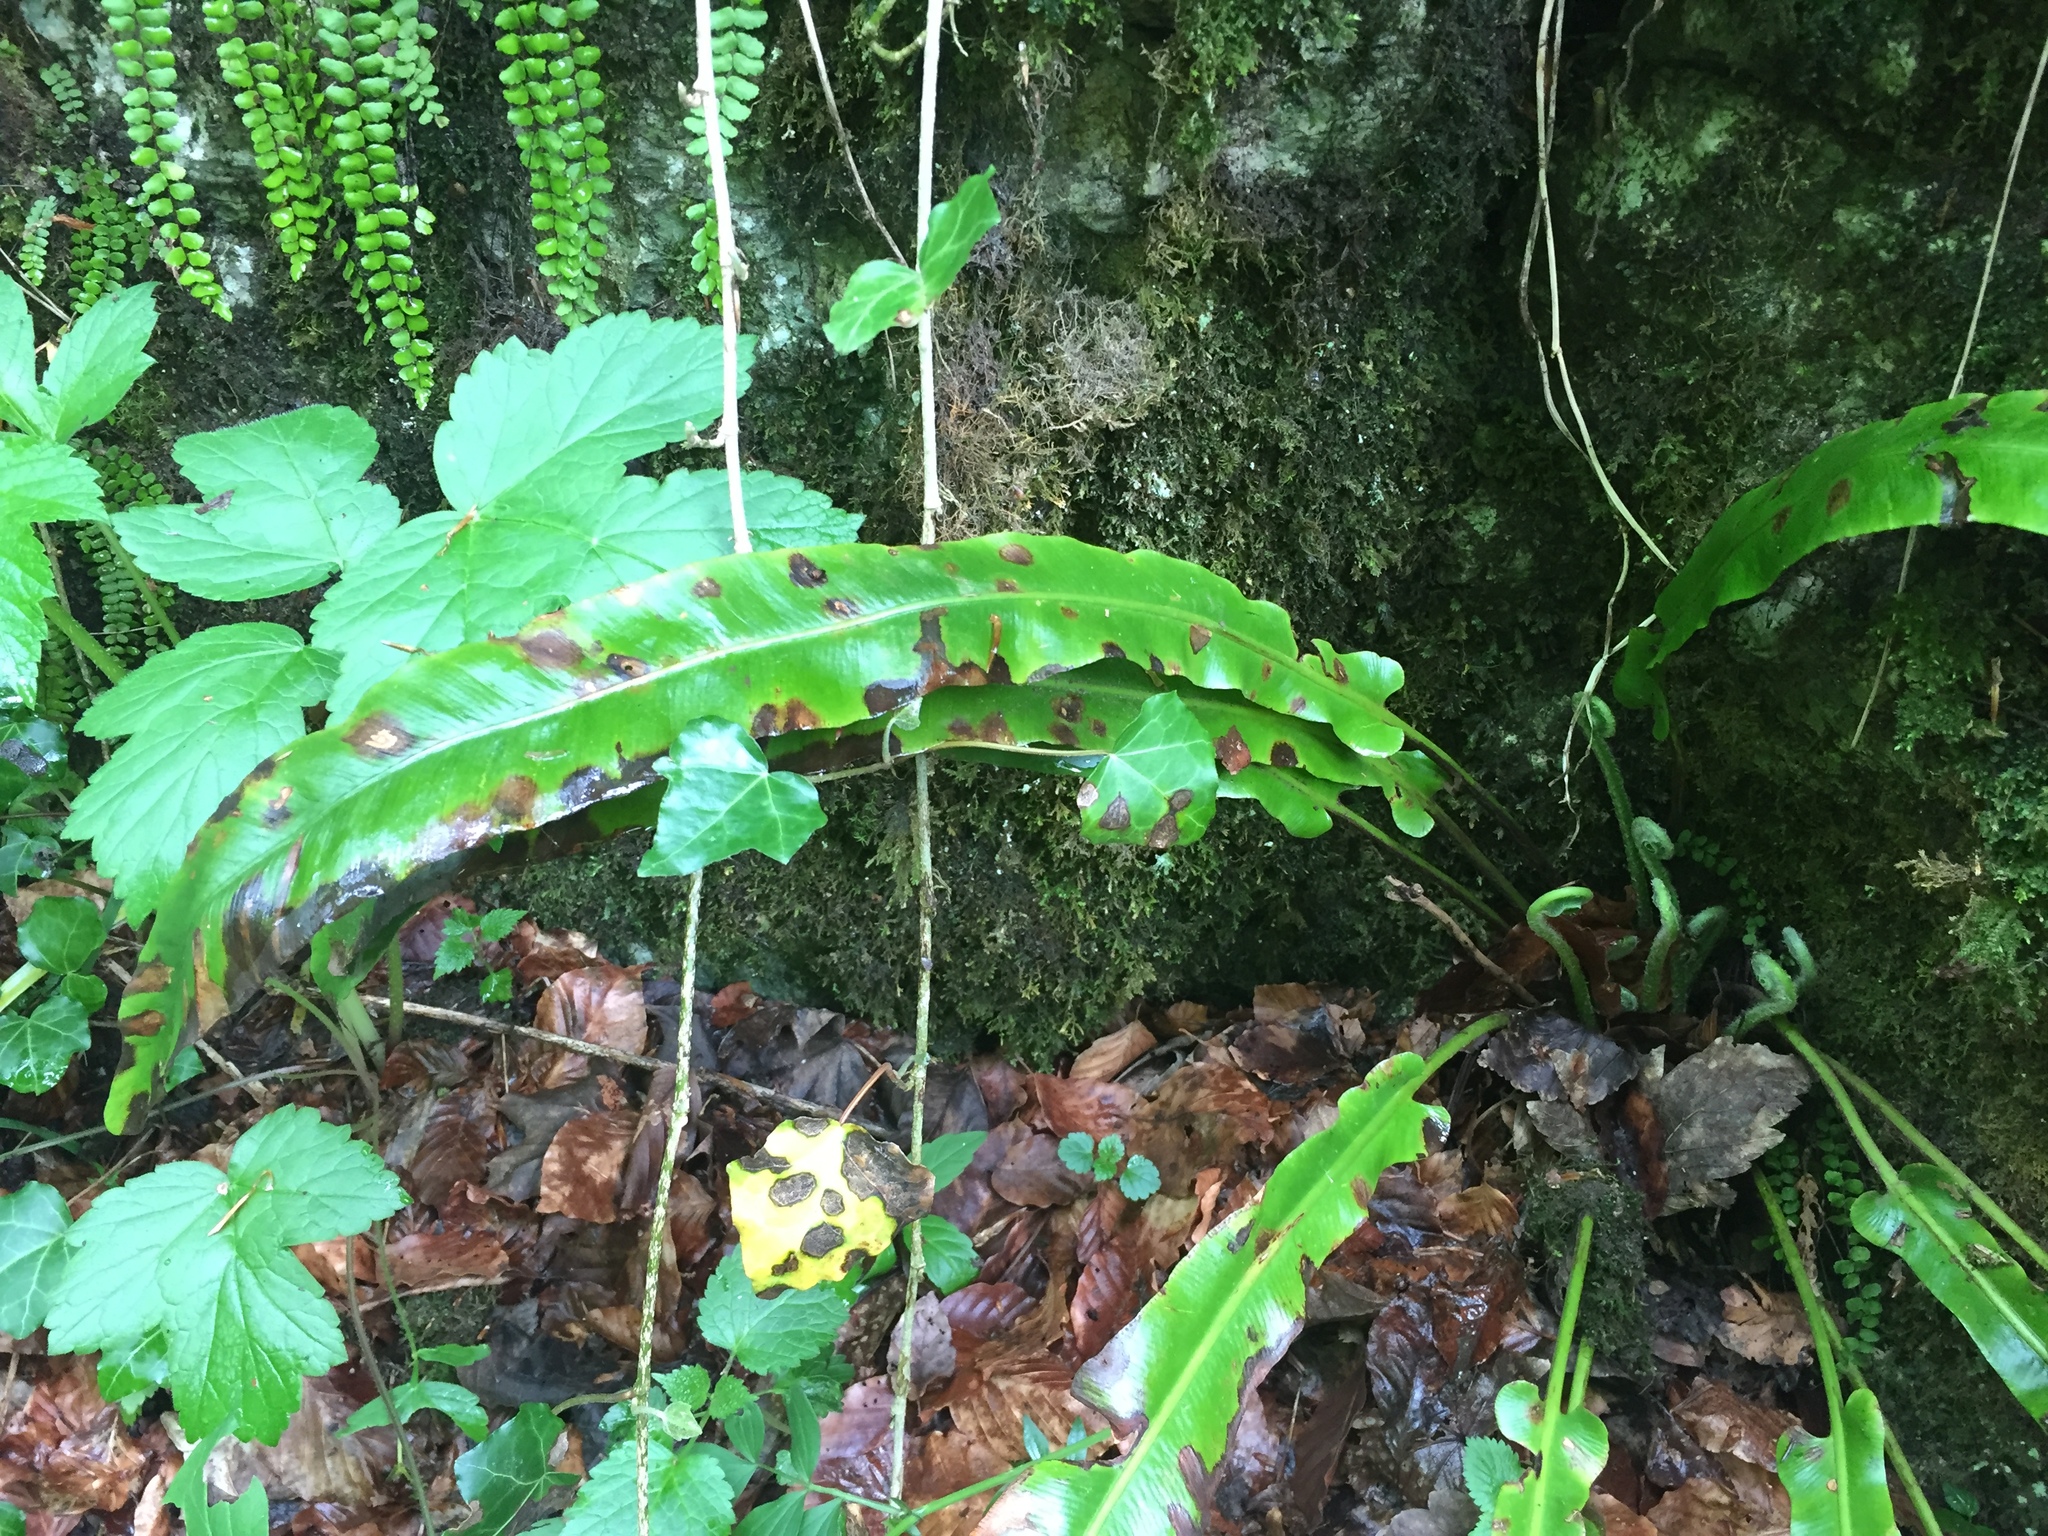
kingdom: Plantae
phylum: Tracheophyta
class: Polypodiopsida
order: Polypodiales
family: Aspleniaceae
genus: Asplenium
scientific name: Asplenium scolopendrium
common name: Hart's-tongue fern
